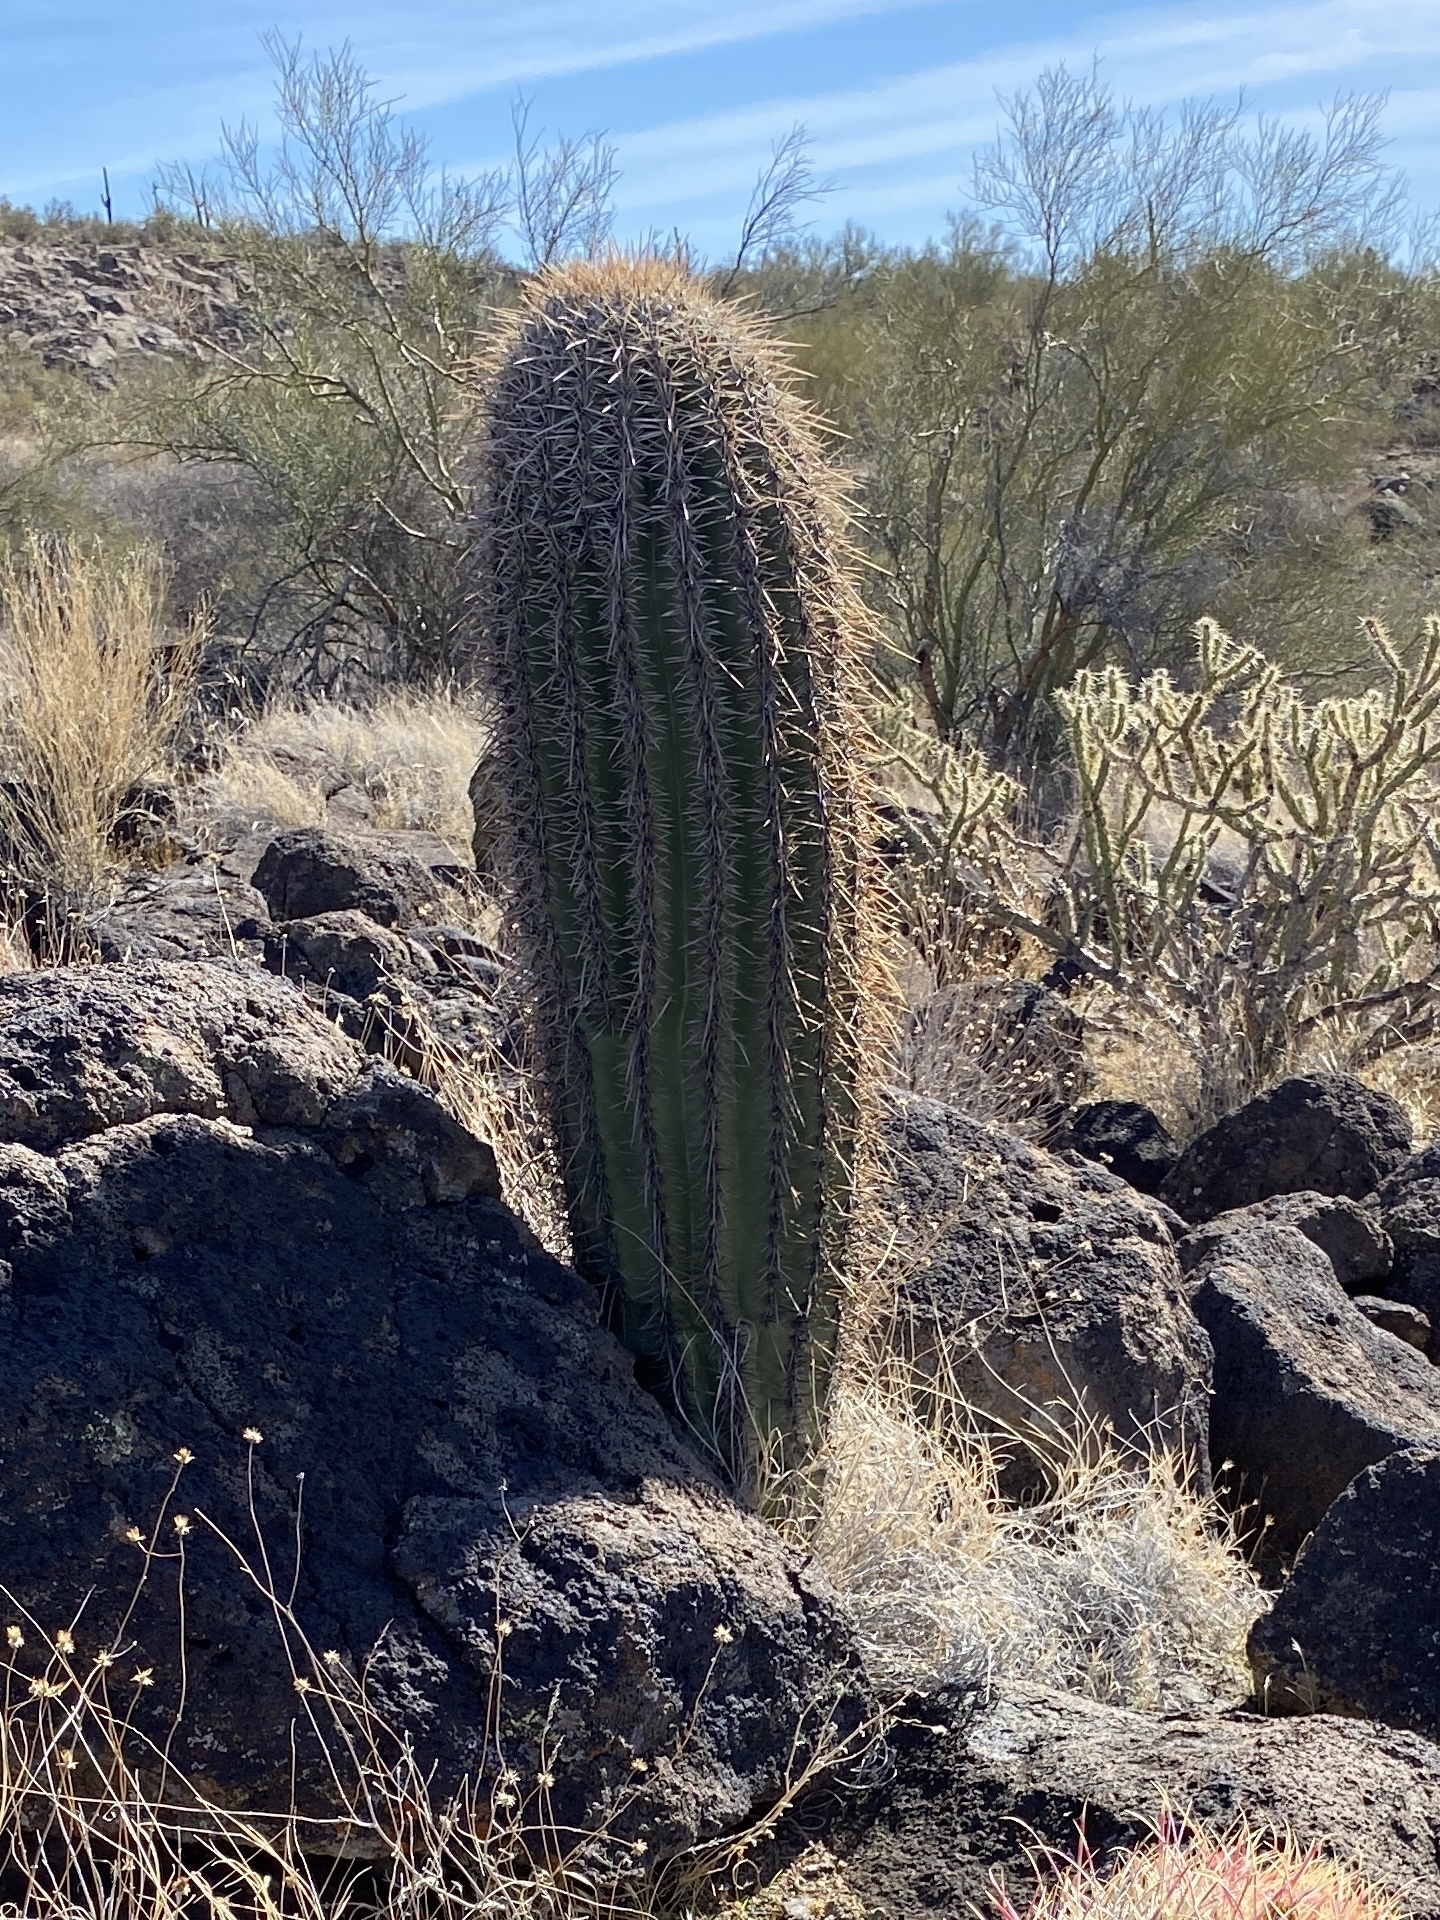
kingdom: Plantae
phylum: Tracheophyta
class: Magnoliopsida
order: Caryophyllales
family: Cactaceae
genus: Carnegiea
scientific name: Carnegiea gigantea
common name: Saguaro
